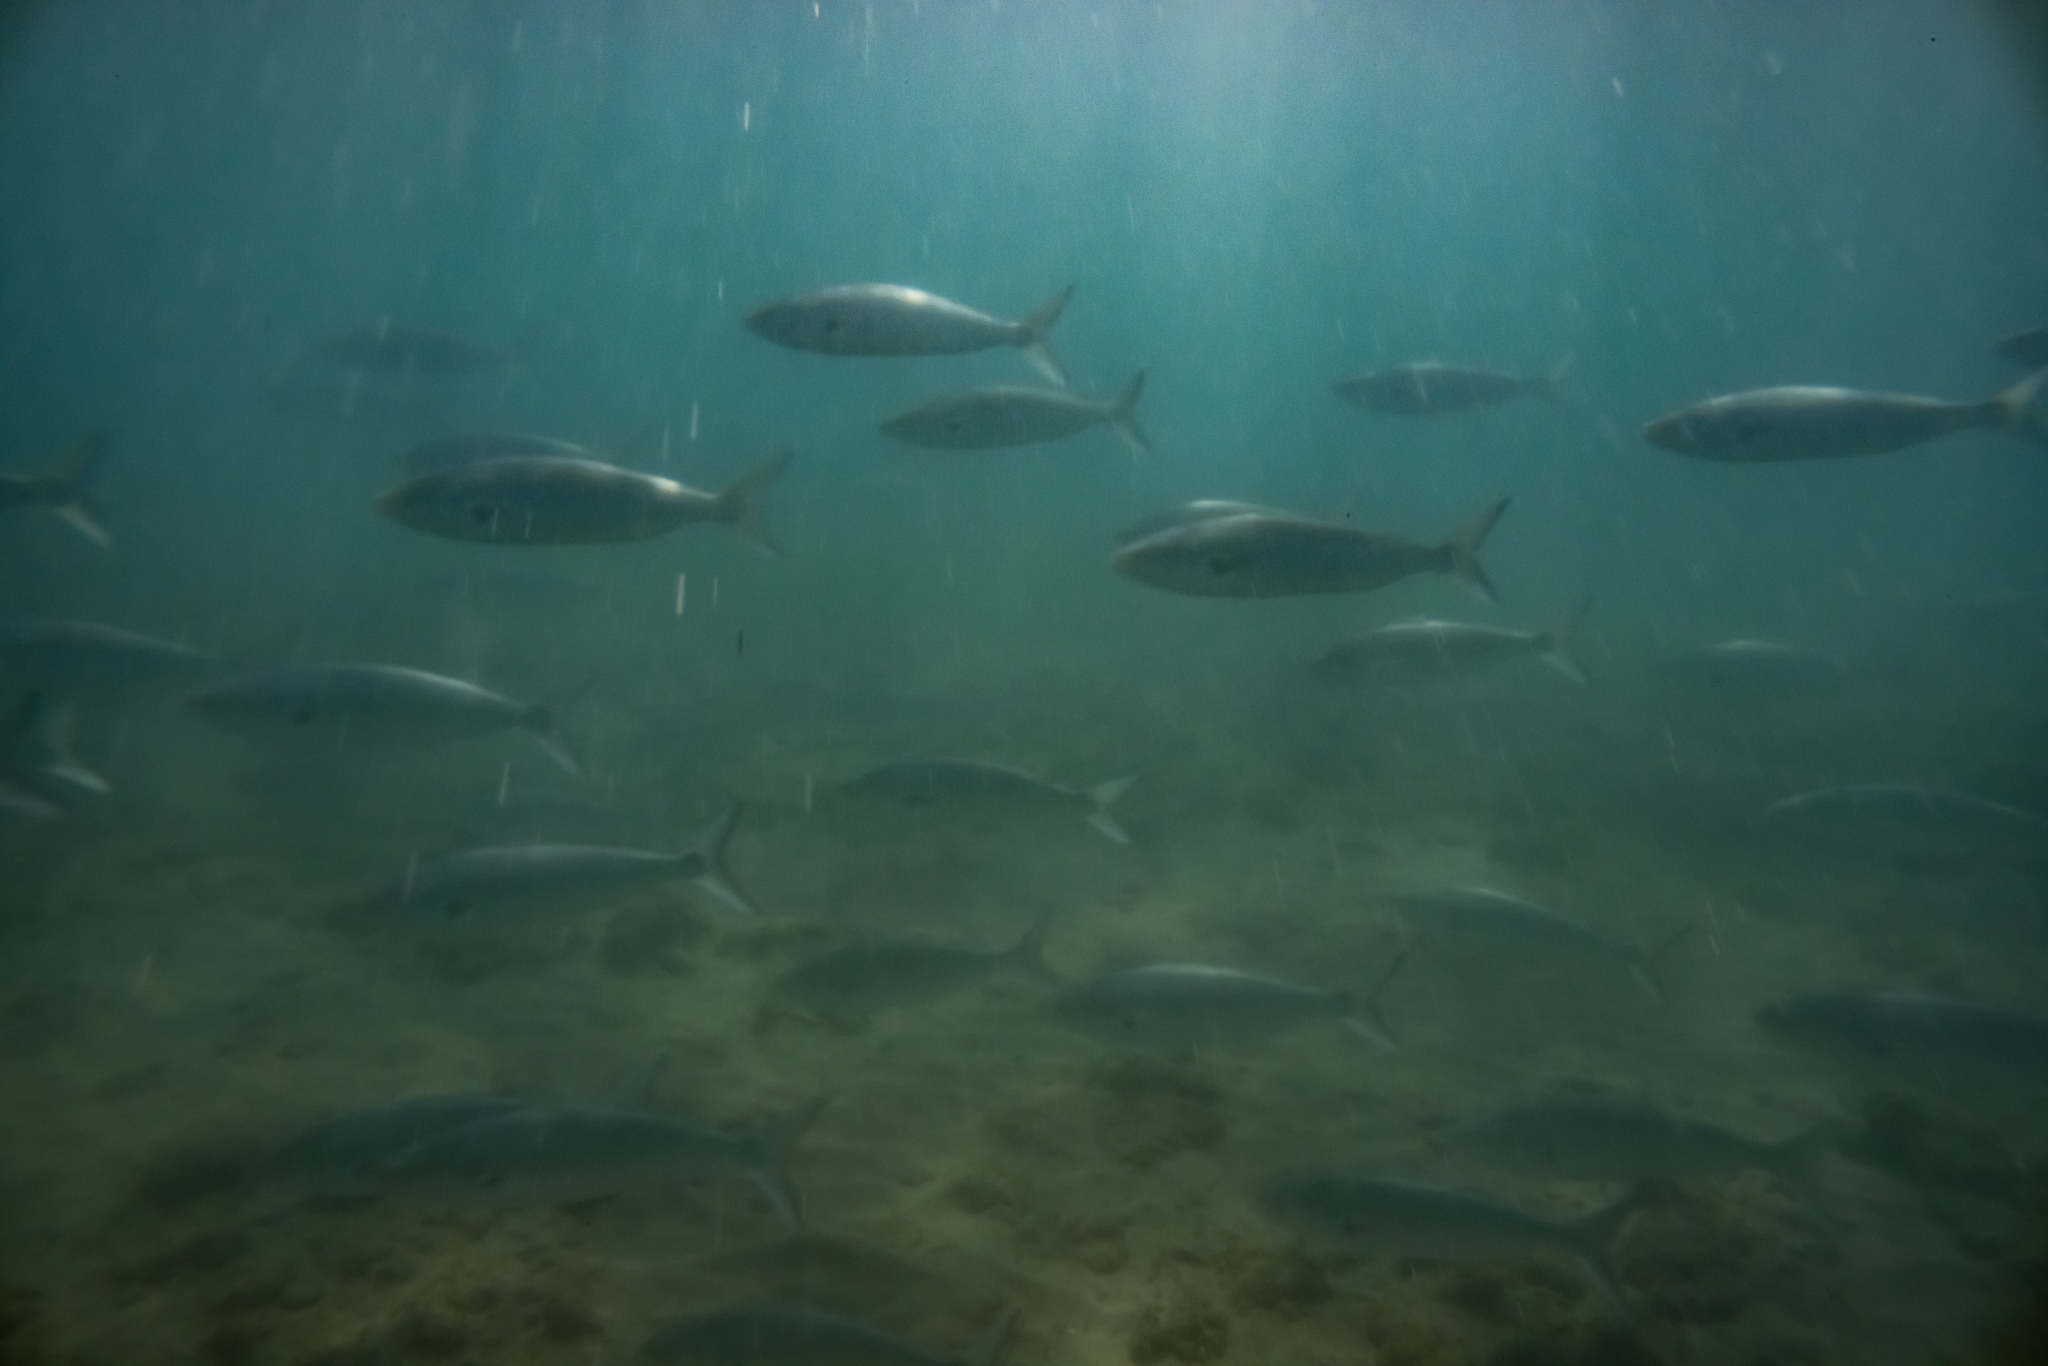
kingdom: Animalia
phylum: Chordata
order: Perciformes
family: Arripidae
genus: Arripis
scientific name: Arripis trutta
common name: Kahawai
